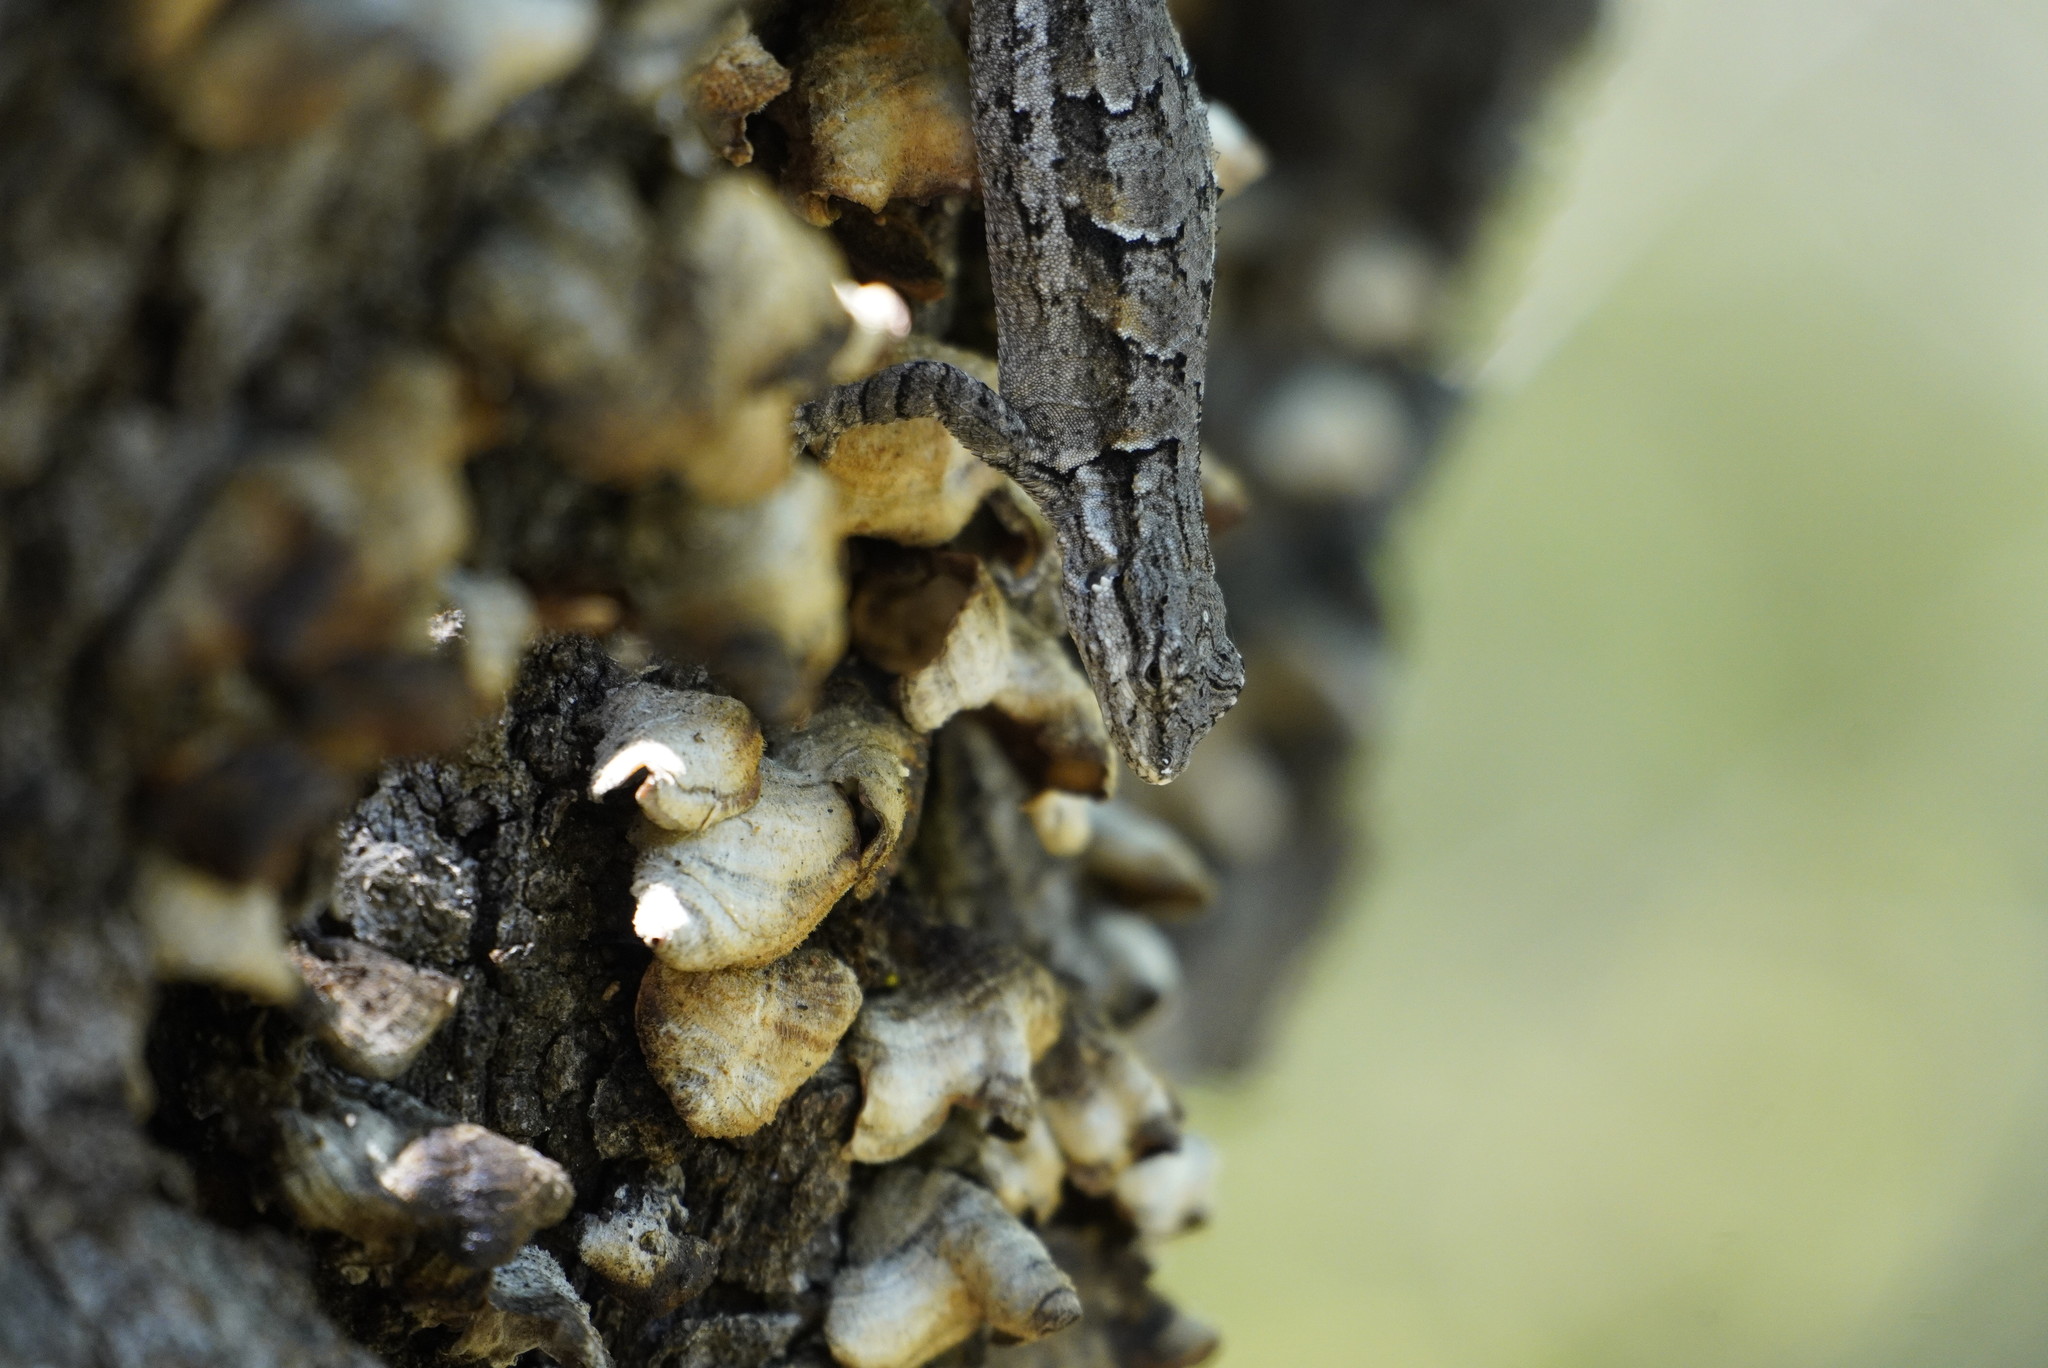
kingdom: Animalia
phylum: Chordata
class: Squamata
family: Phrynosomatidae
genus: Urosaurus
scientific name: Urosaurus ornatus
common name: Ornate tree lizard
